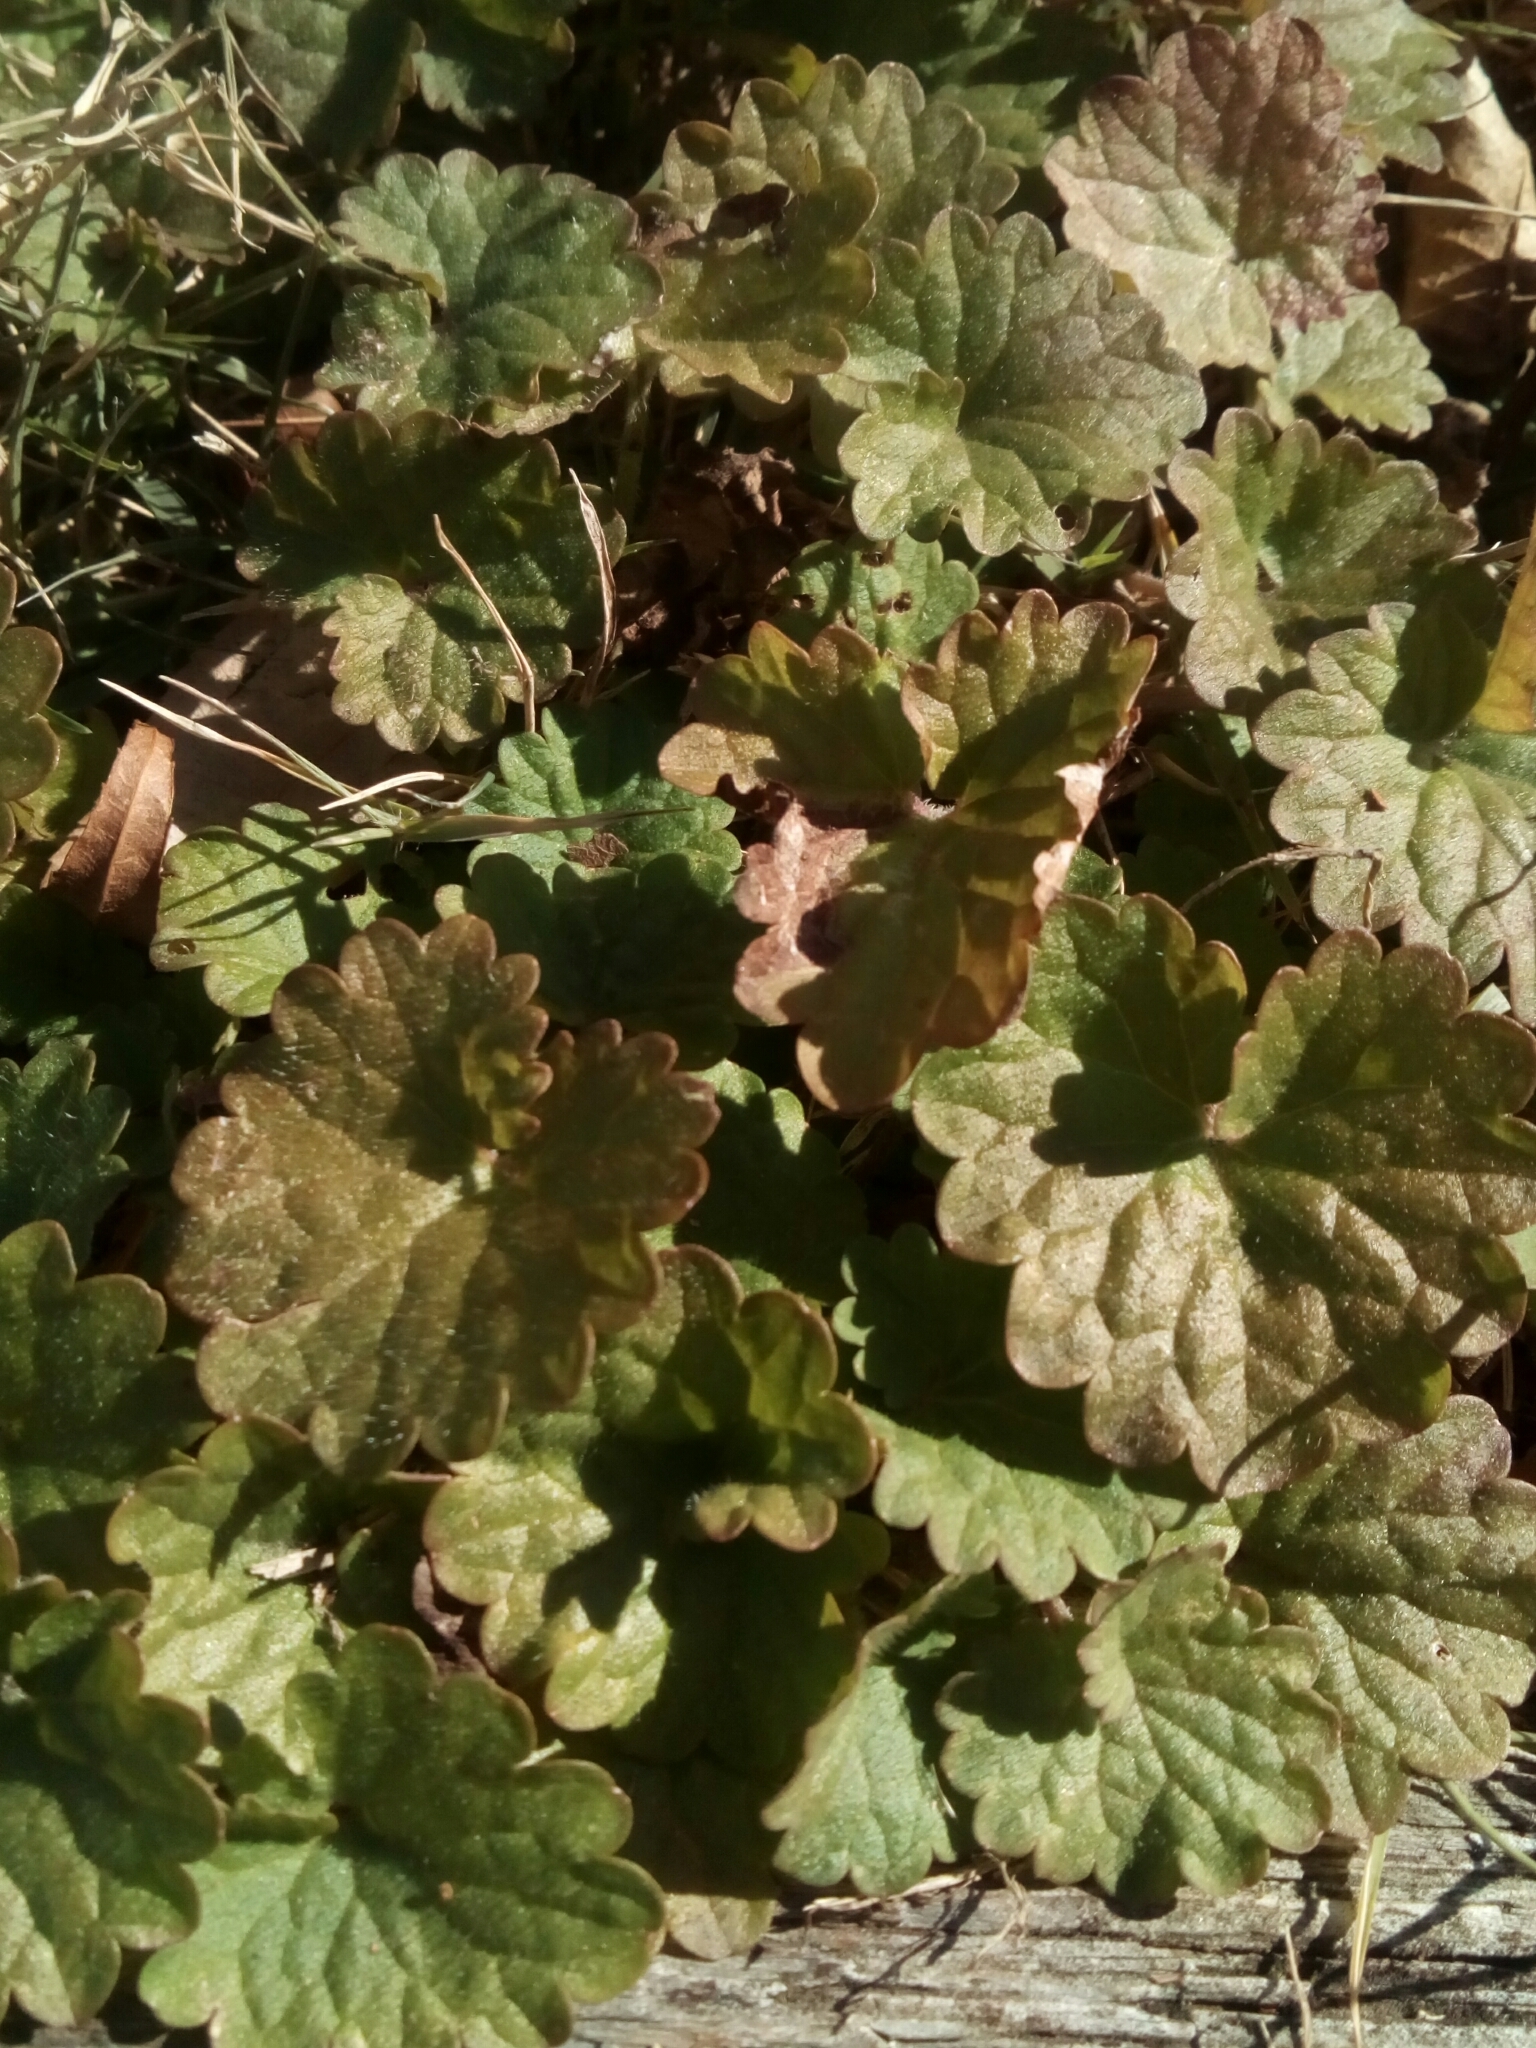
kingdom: Plantae
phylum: Tracheophyta
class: Magnoliopsida
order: Lamiales
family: Lamiaceae
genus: Glechoma
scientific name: Glechoma hederacea
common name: Ground ivy
